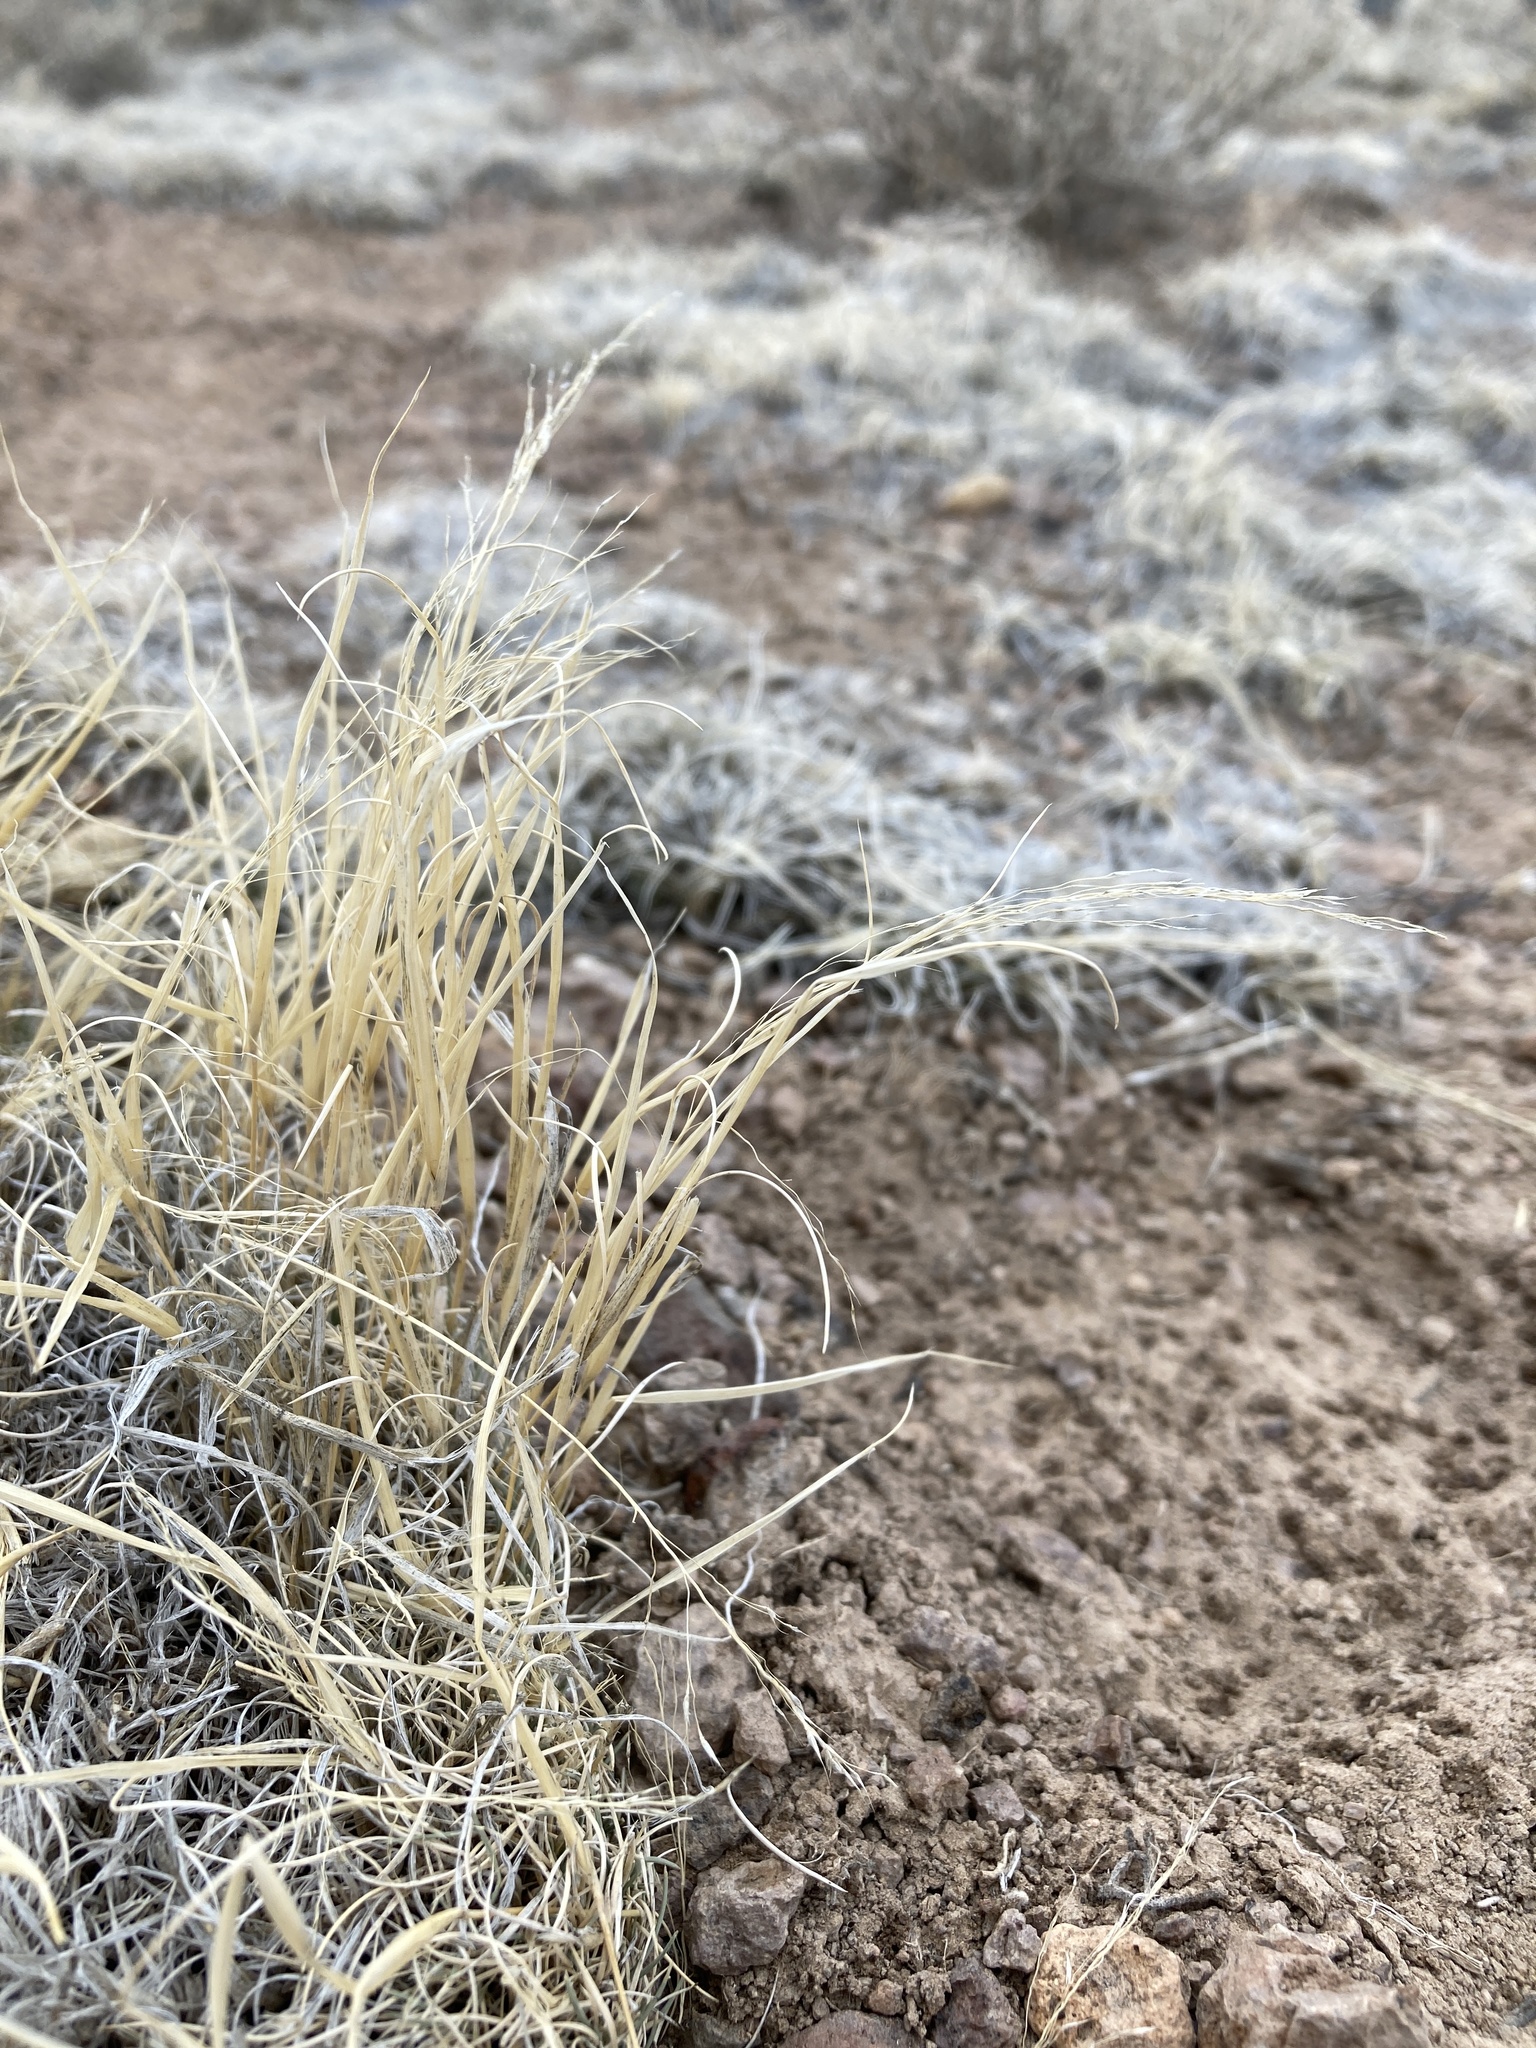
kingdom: Plantae
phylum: Tracheophyta
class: Liliopsida
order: Poales
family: Poaceae
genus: Muhlenbergia
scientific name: Muhlenbergia torreyi
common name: Ring grass
